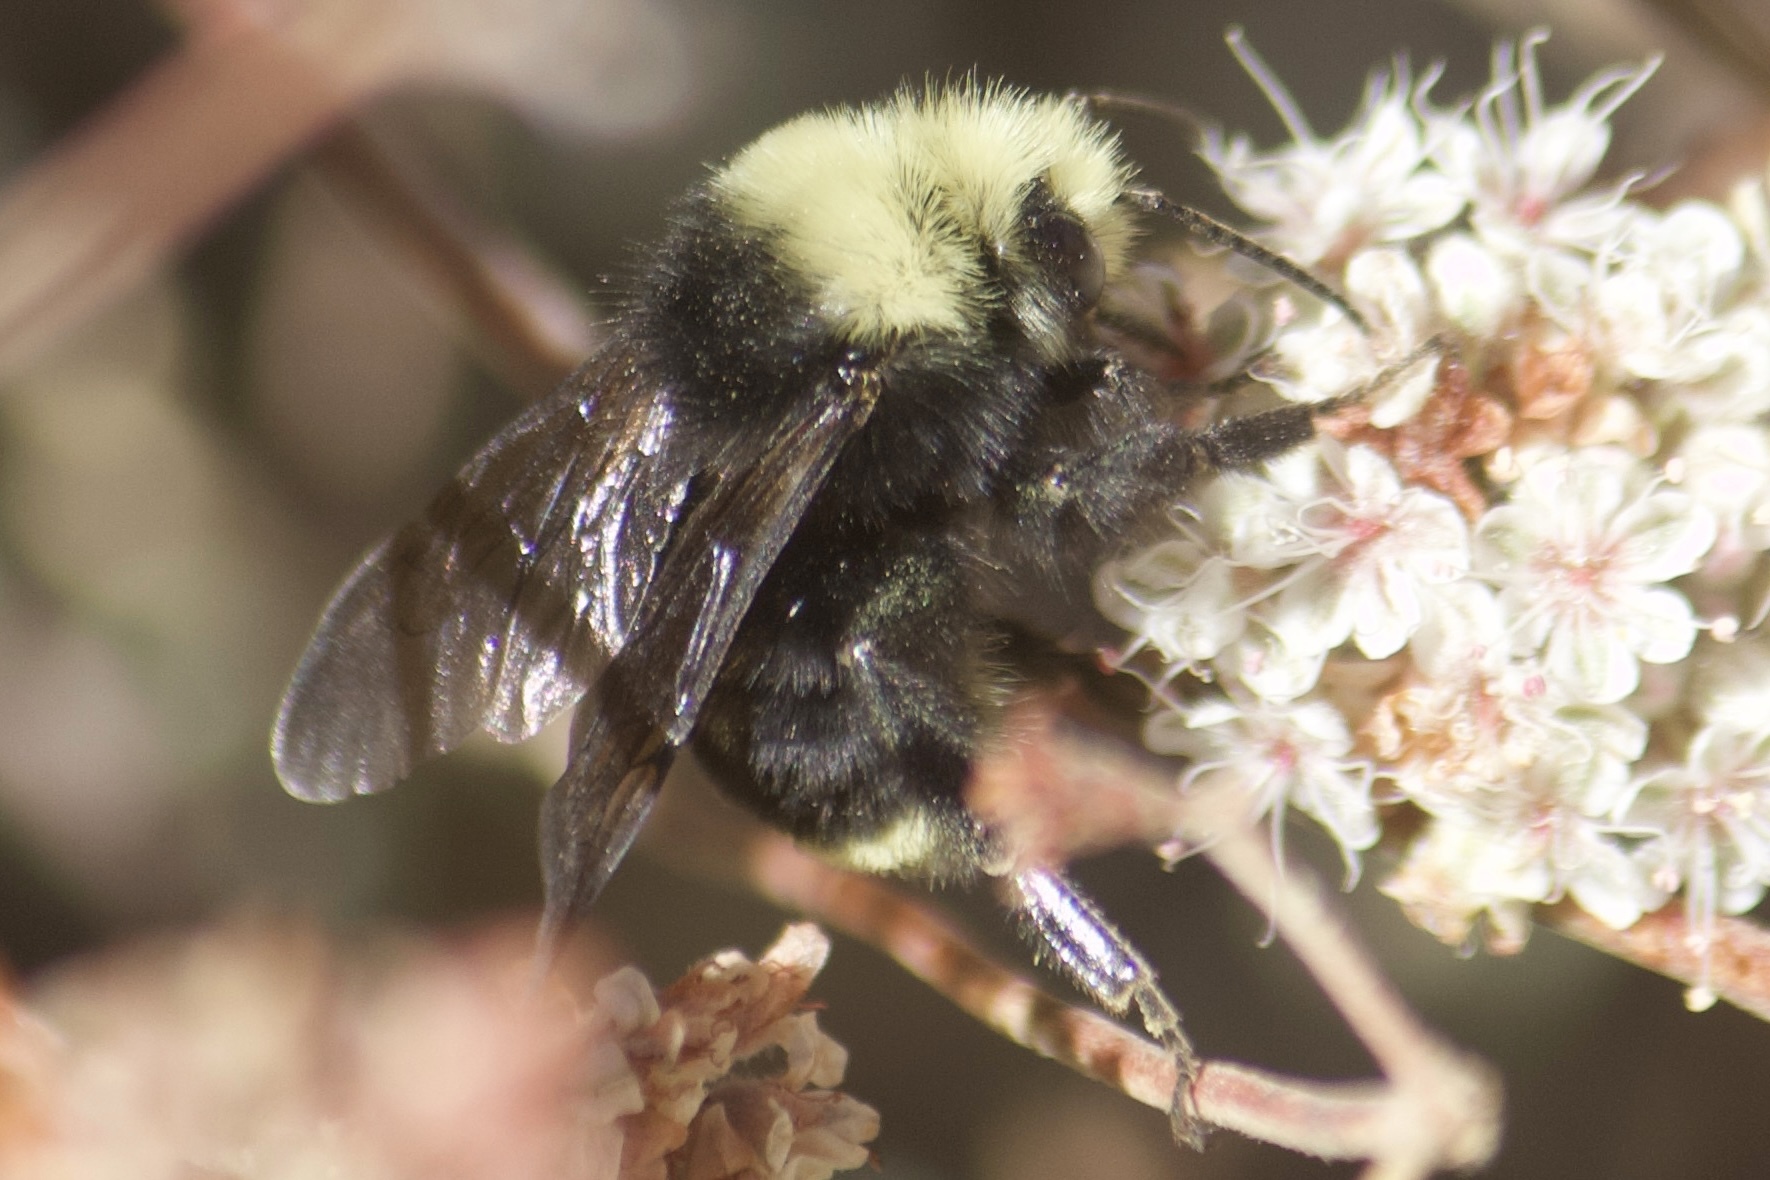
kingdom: Animalia
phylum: Arthropoda
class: Insecta
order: Hymenoptera
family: Apidae
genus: Bombus
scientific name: Bombus vosnesenskii
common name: Vosnesensky bumble bee
